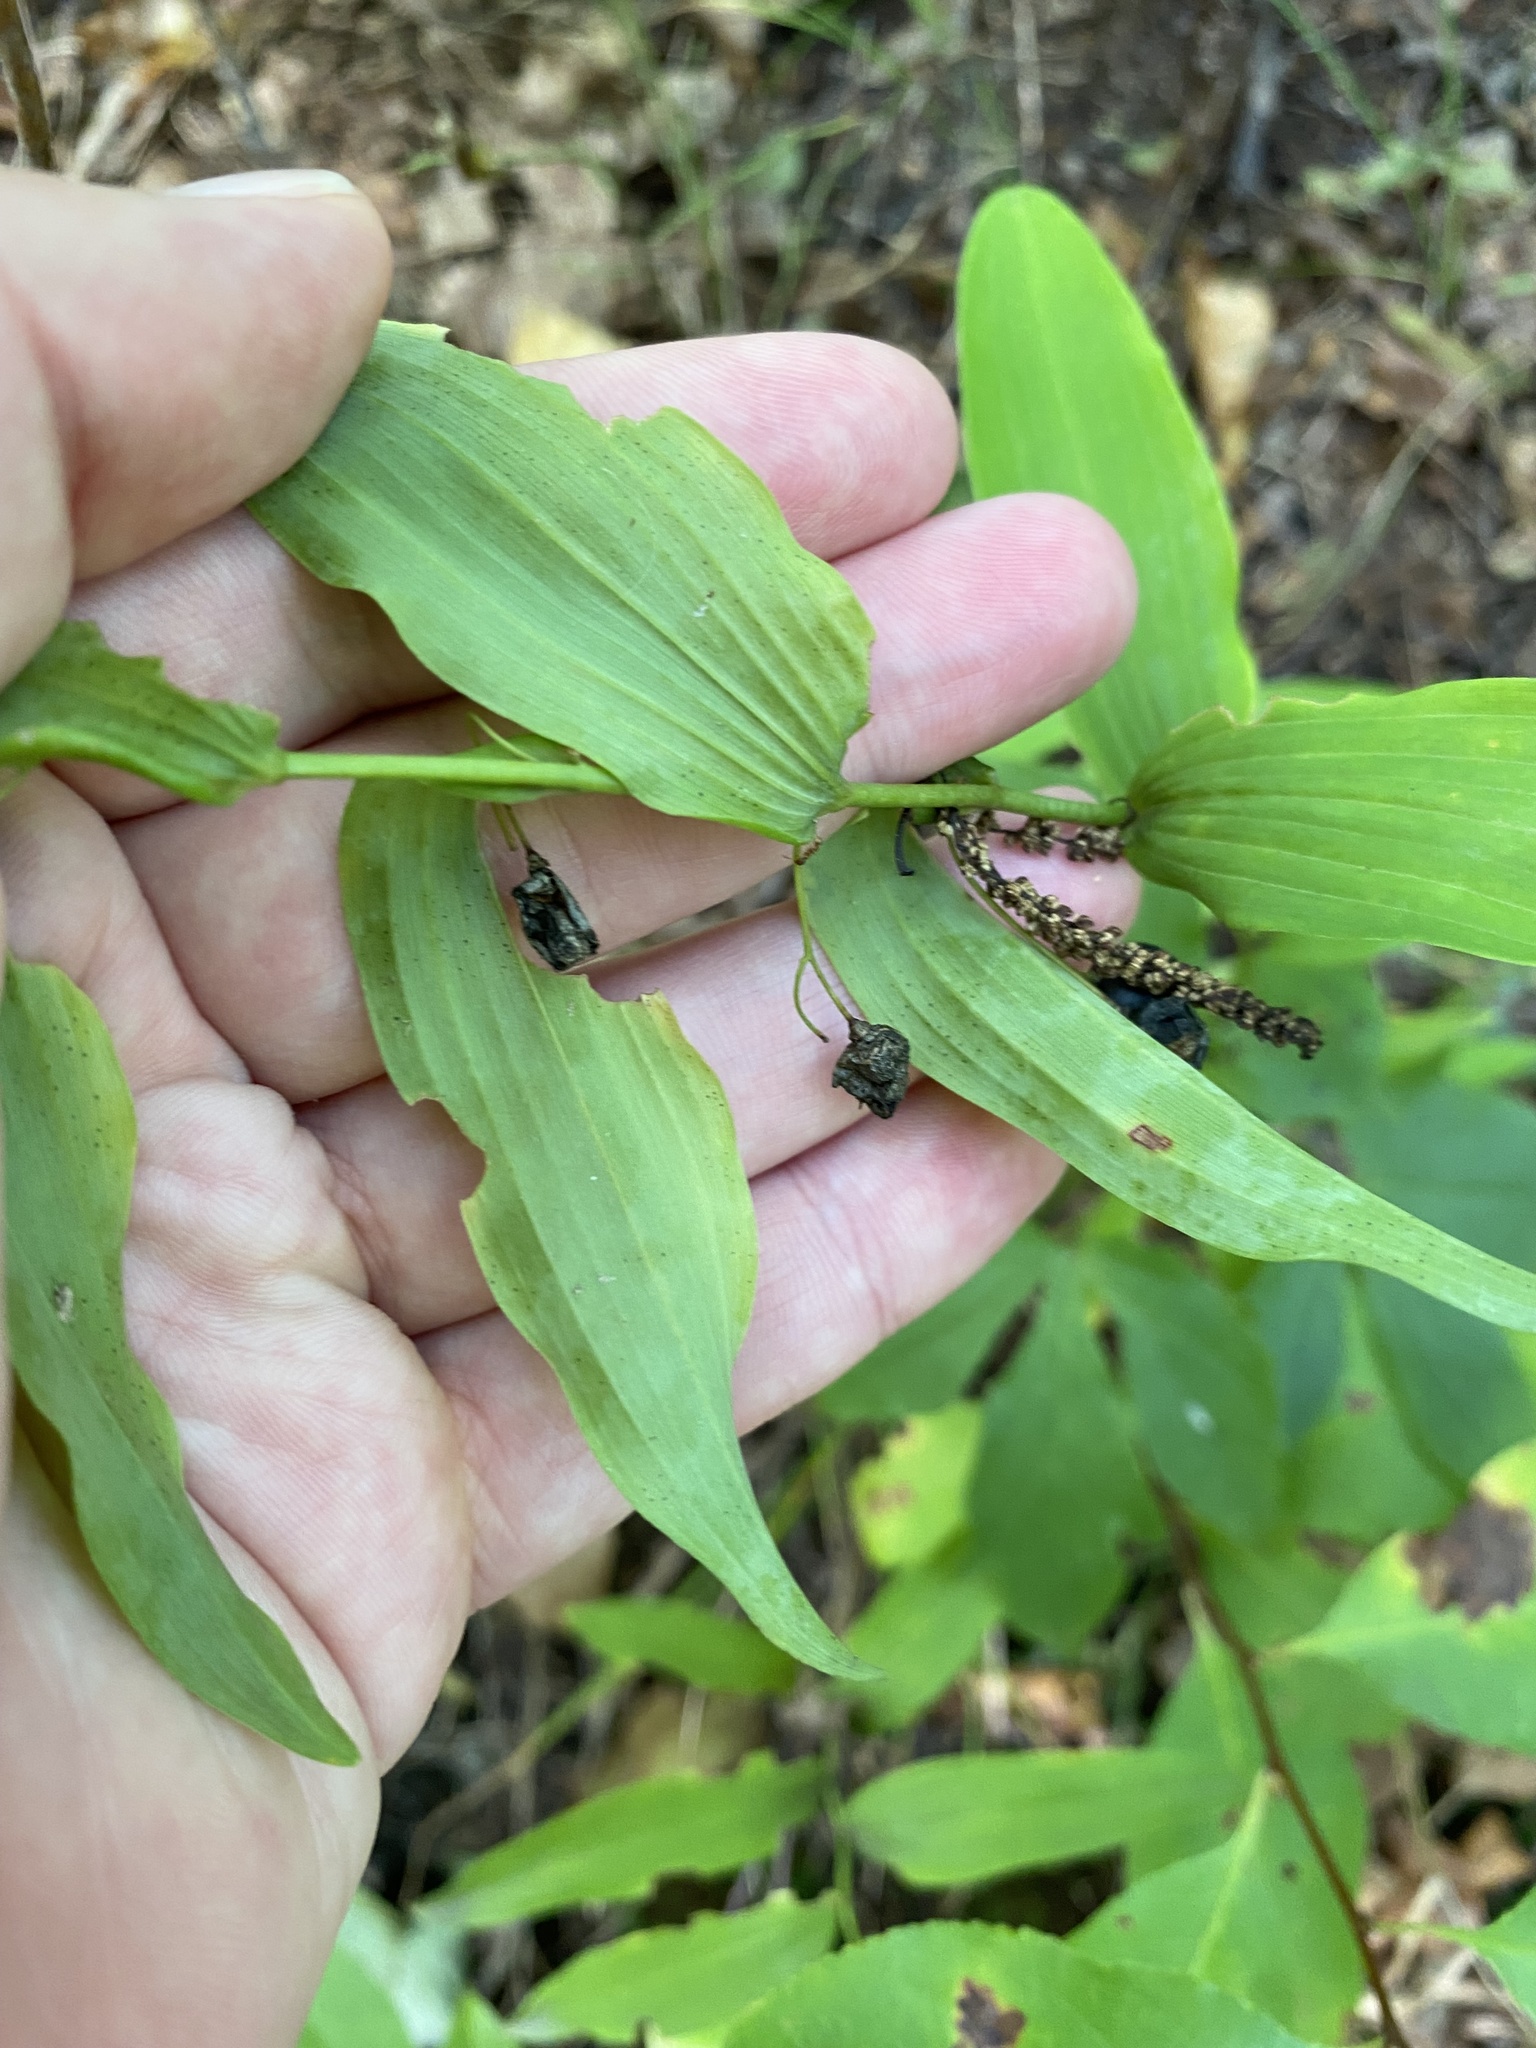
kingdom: Plantae
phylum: Tracheophyta
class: Liliopsida
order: Asparagales
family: Asparagaceae
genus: Polygonatum
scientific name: Polygonatum biflorum
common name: American solomon's-seal
